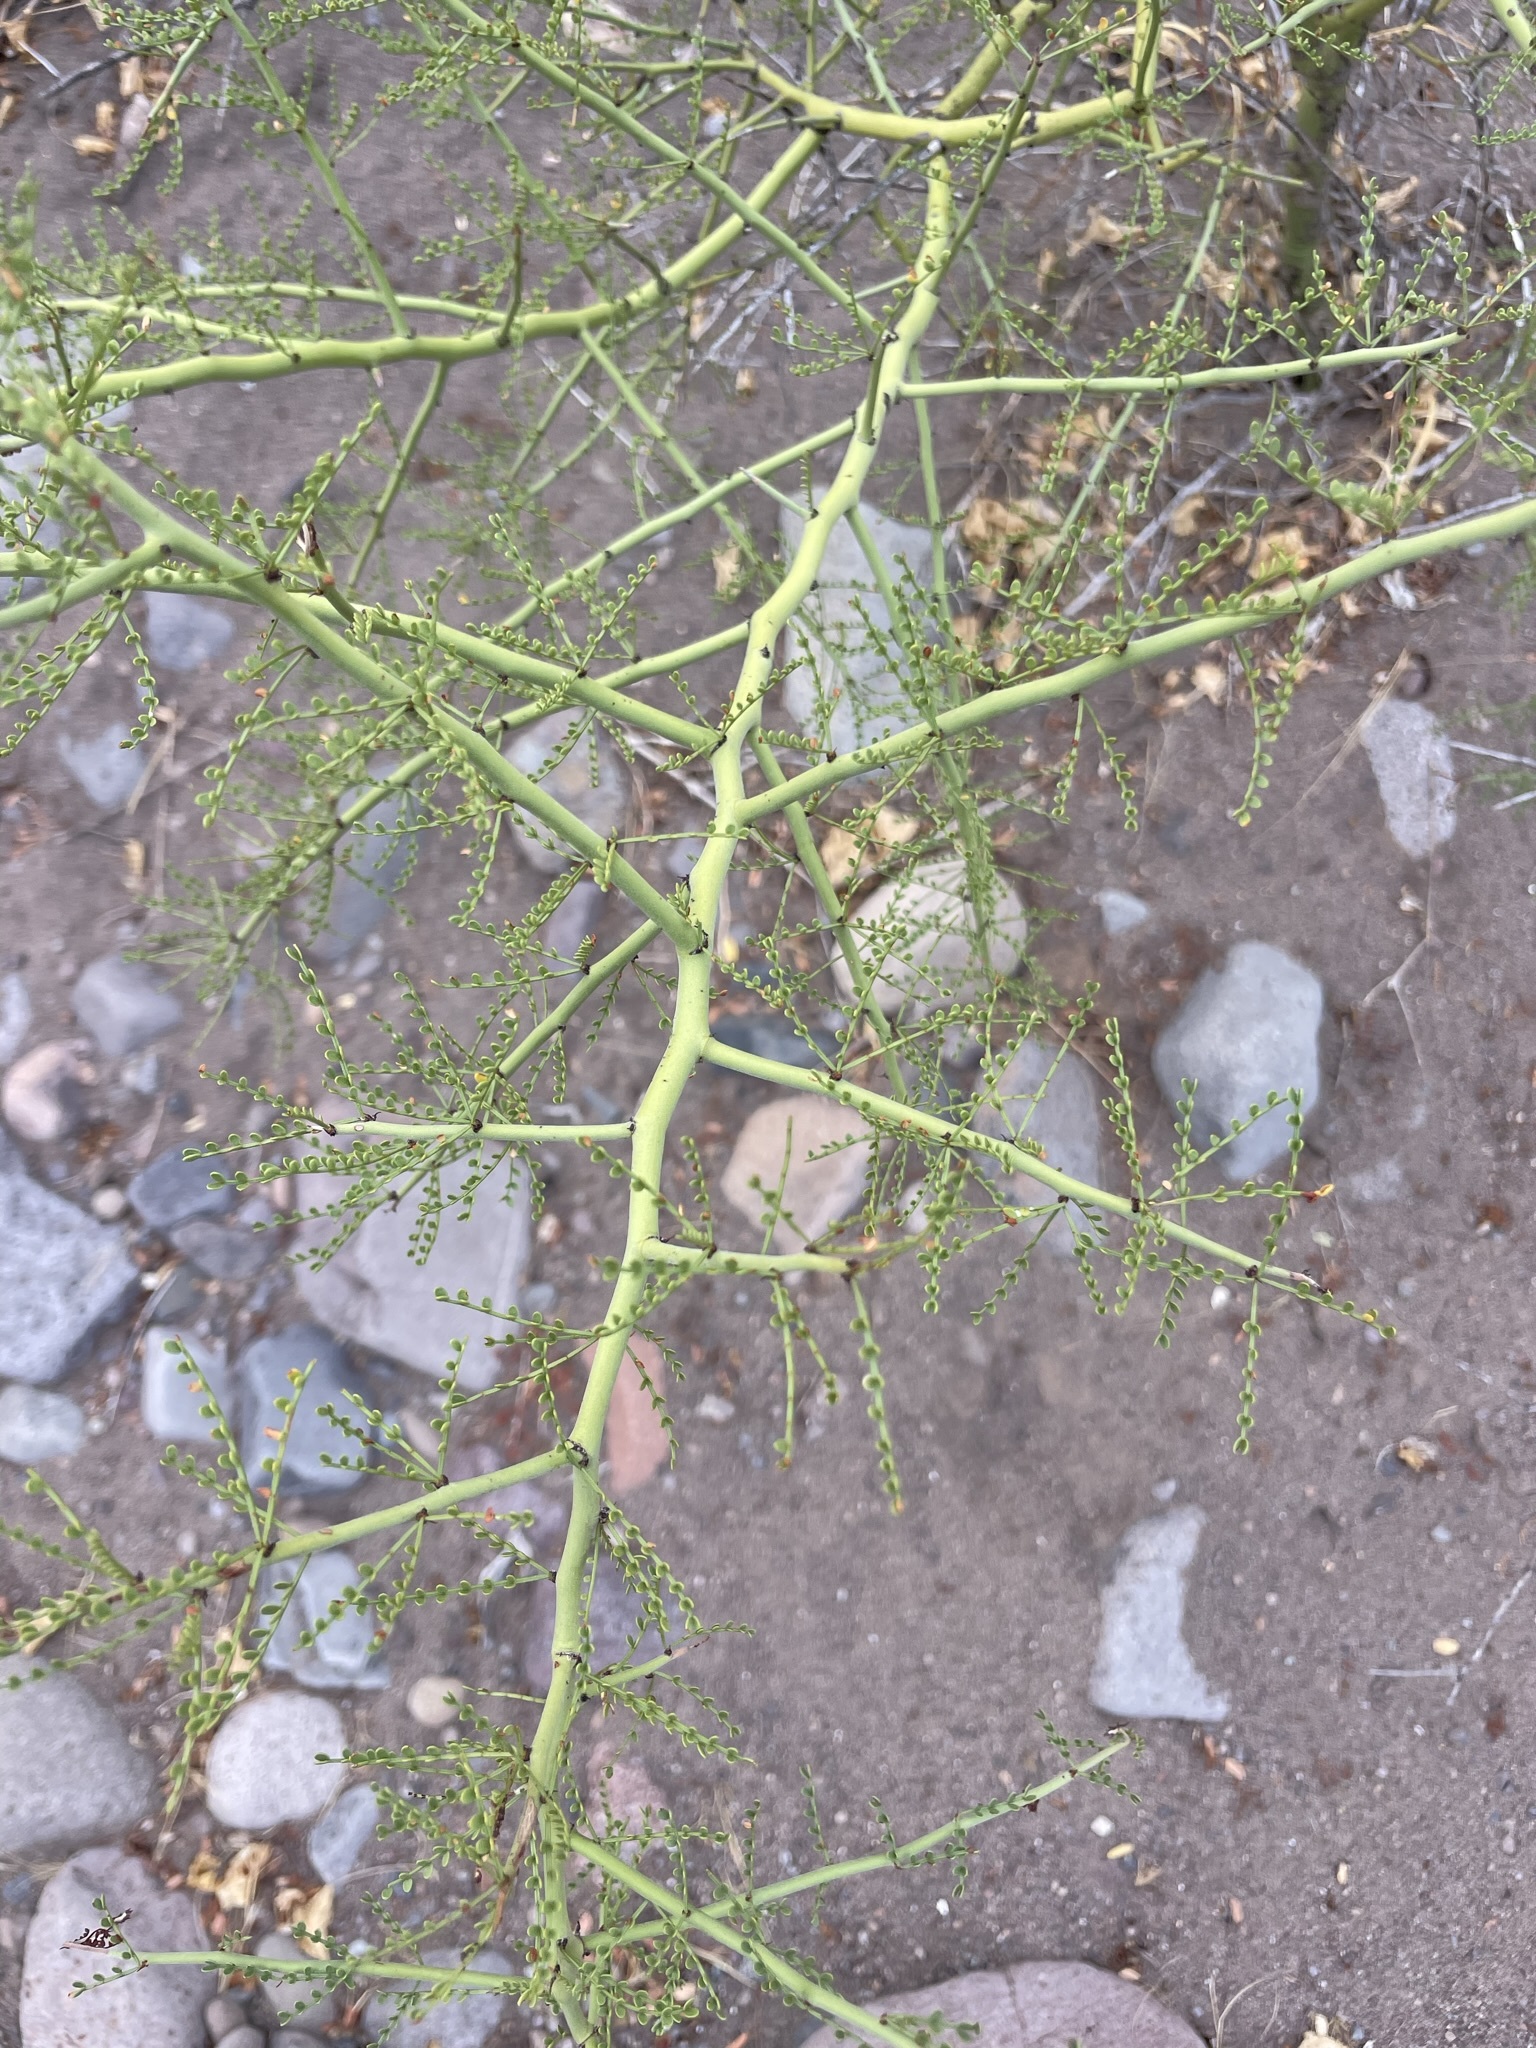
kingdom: Plantae
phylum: Tracheophyta
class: Magnoliopsida
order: Fabales
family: Fabaceae
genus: Parkinsonia
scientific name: Parkinsonia microphylla
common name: Yellow paloverde
